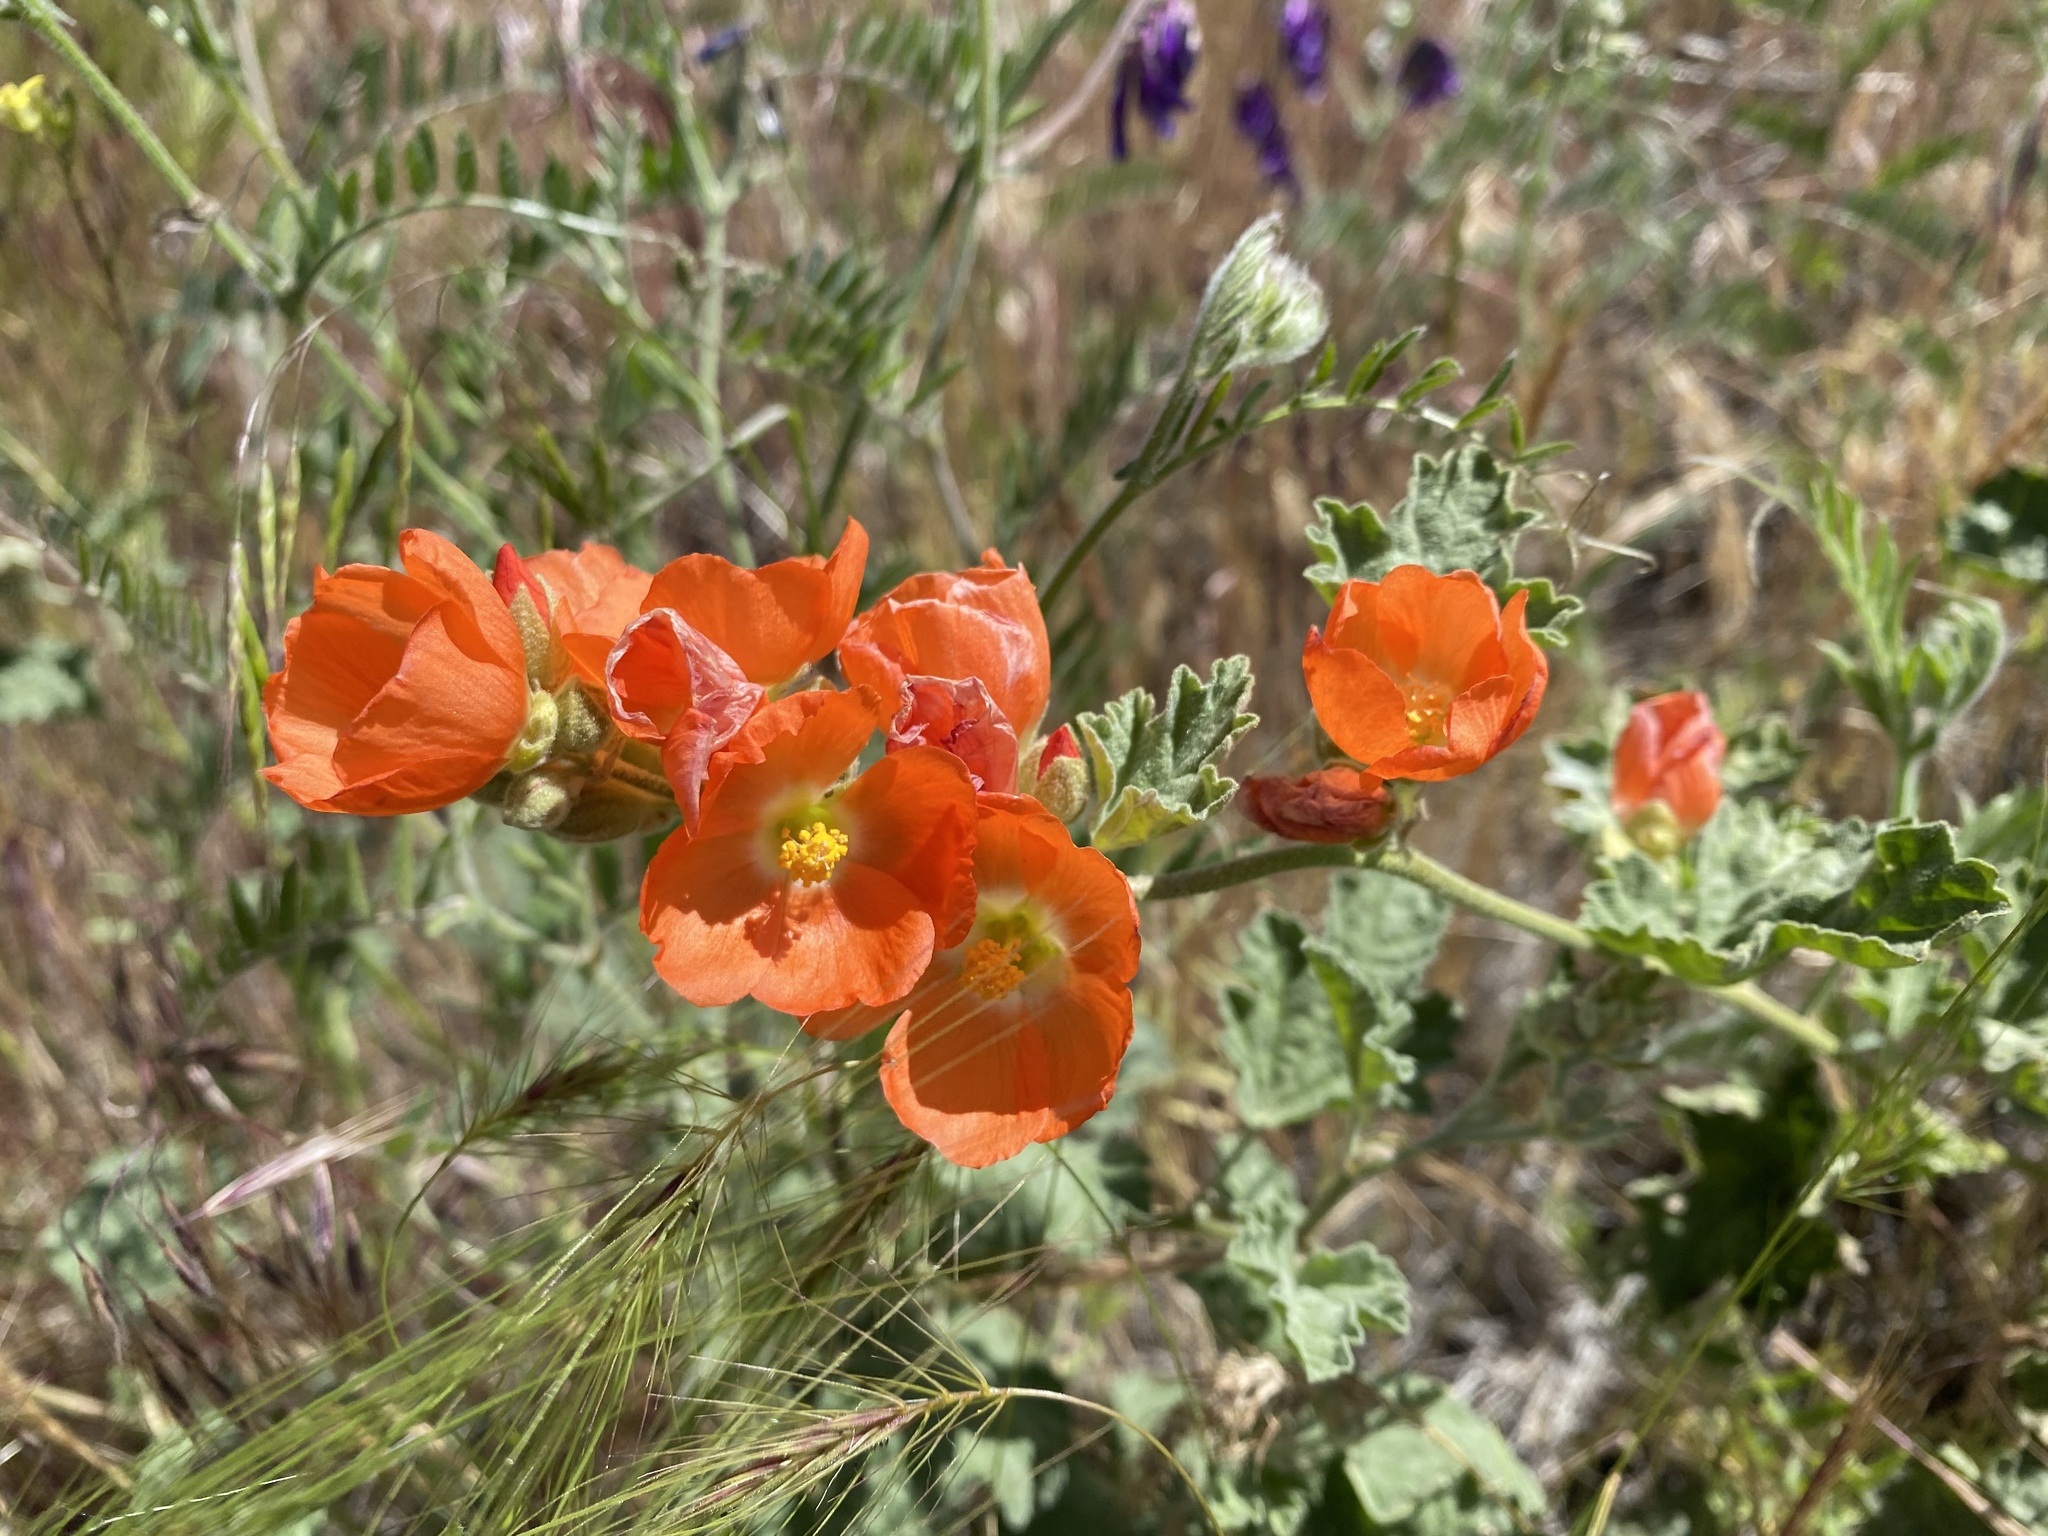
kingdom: Plantae
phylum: Tracheophyta
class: Magnoliopsida
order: Malvales
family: Malvaceae
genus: Sphaeralcea
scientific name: Sphaeralcea munroana
